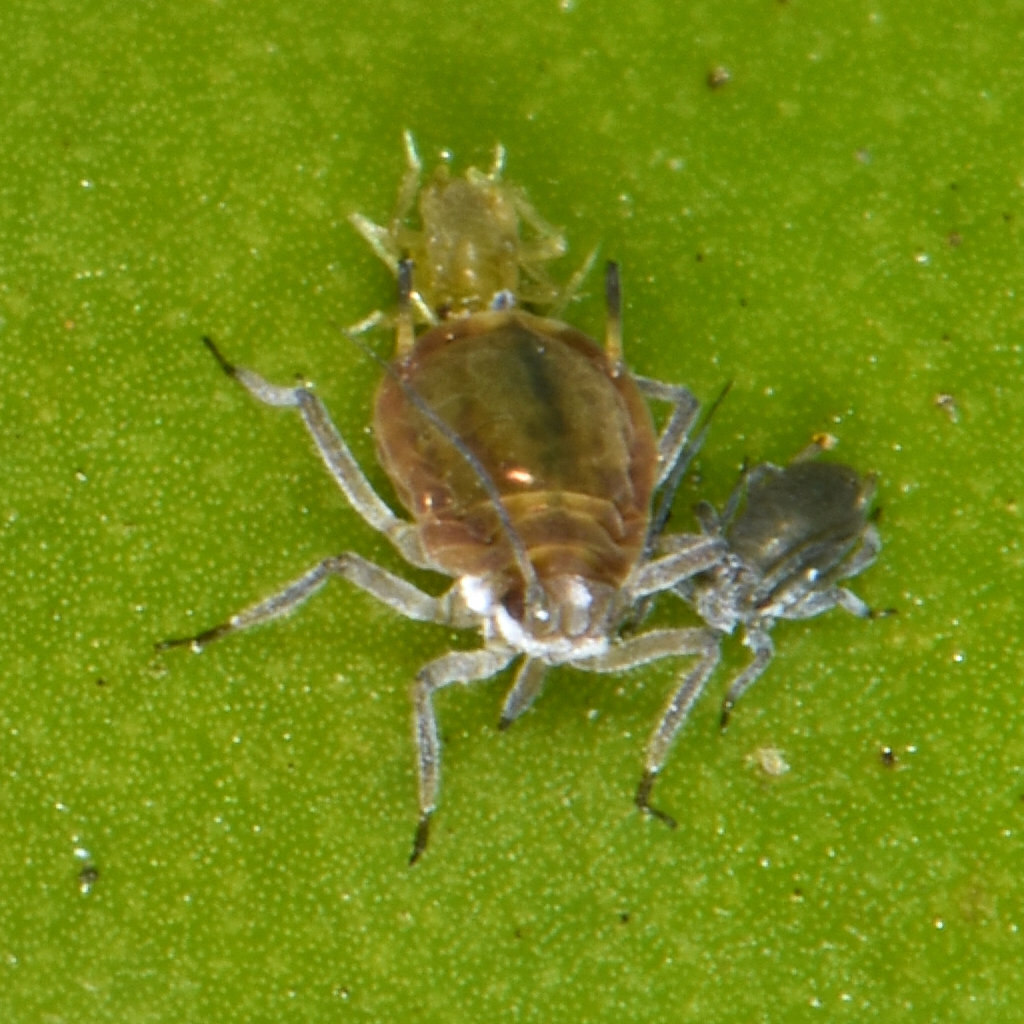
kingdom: Animalia
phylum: Arthropoda
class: Insecta
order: Hemiptera
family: Aphididae
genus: Rhopalosiphum
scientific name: Rhopalosiphum nymphaeae
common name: Water lily aphid
